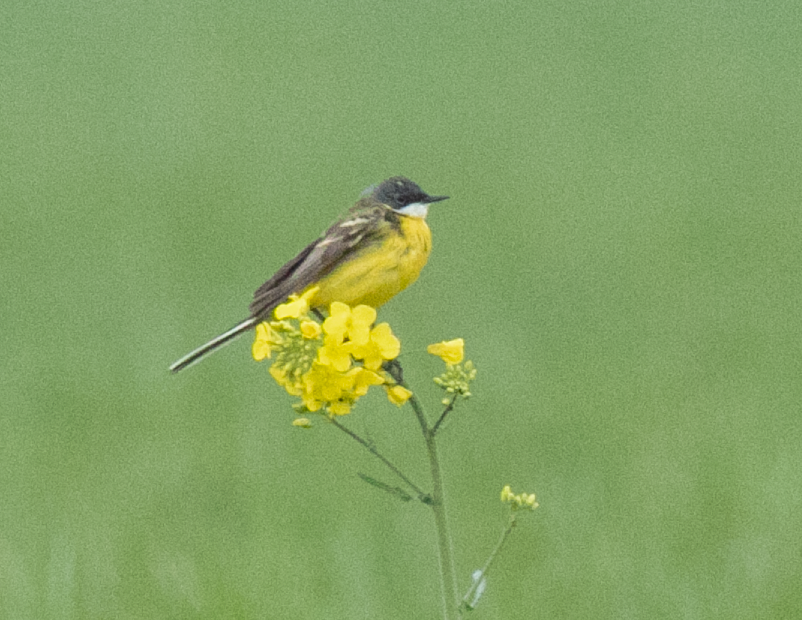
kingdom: Animalia
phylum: Chordata
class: Aves
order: Passeriformes
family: Motacillidae
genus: Motacilla
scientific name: Motacilla flava
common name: Western yellow wagtail
